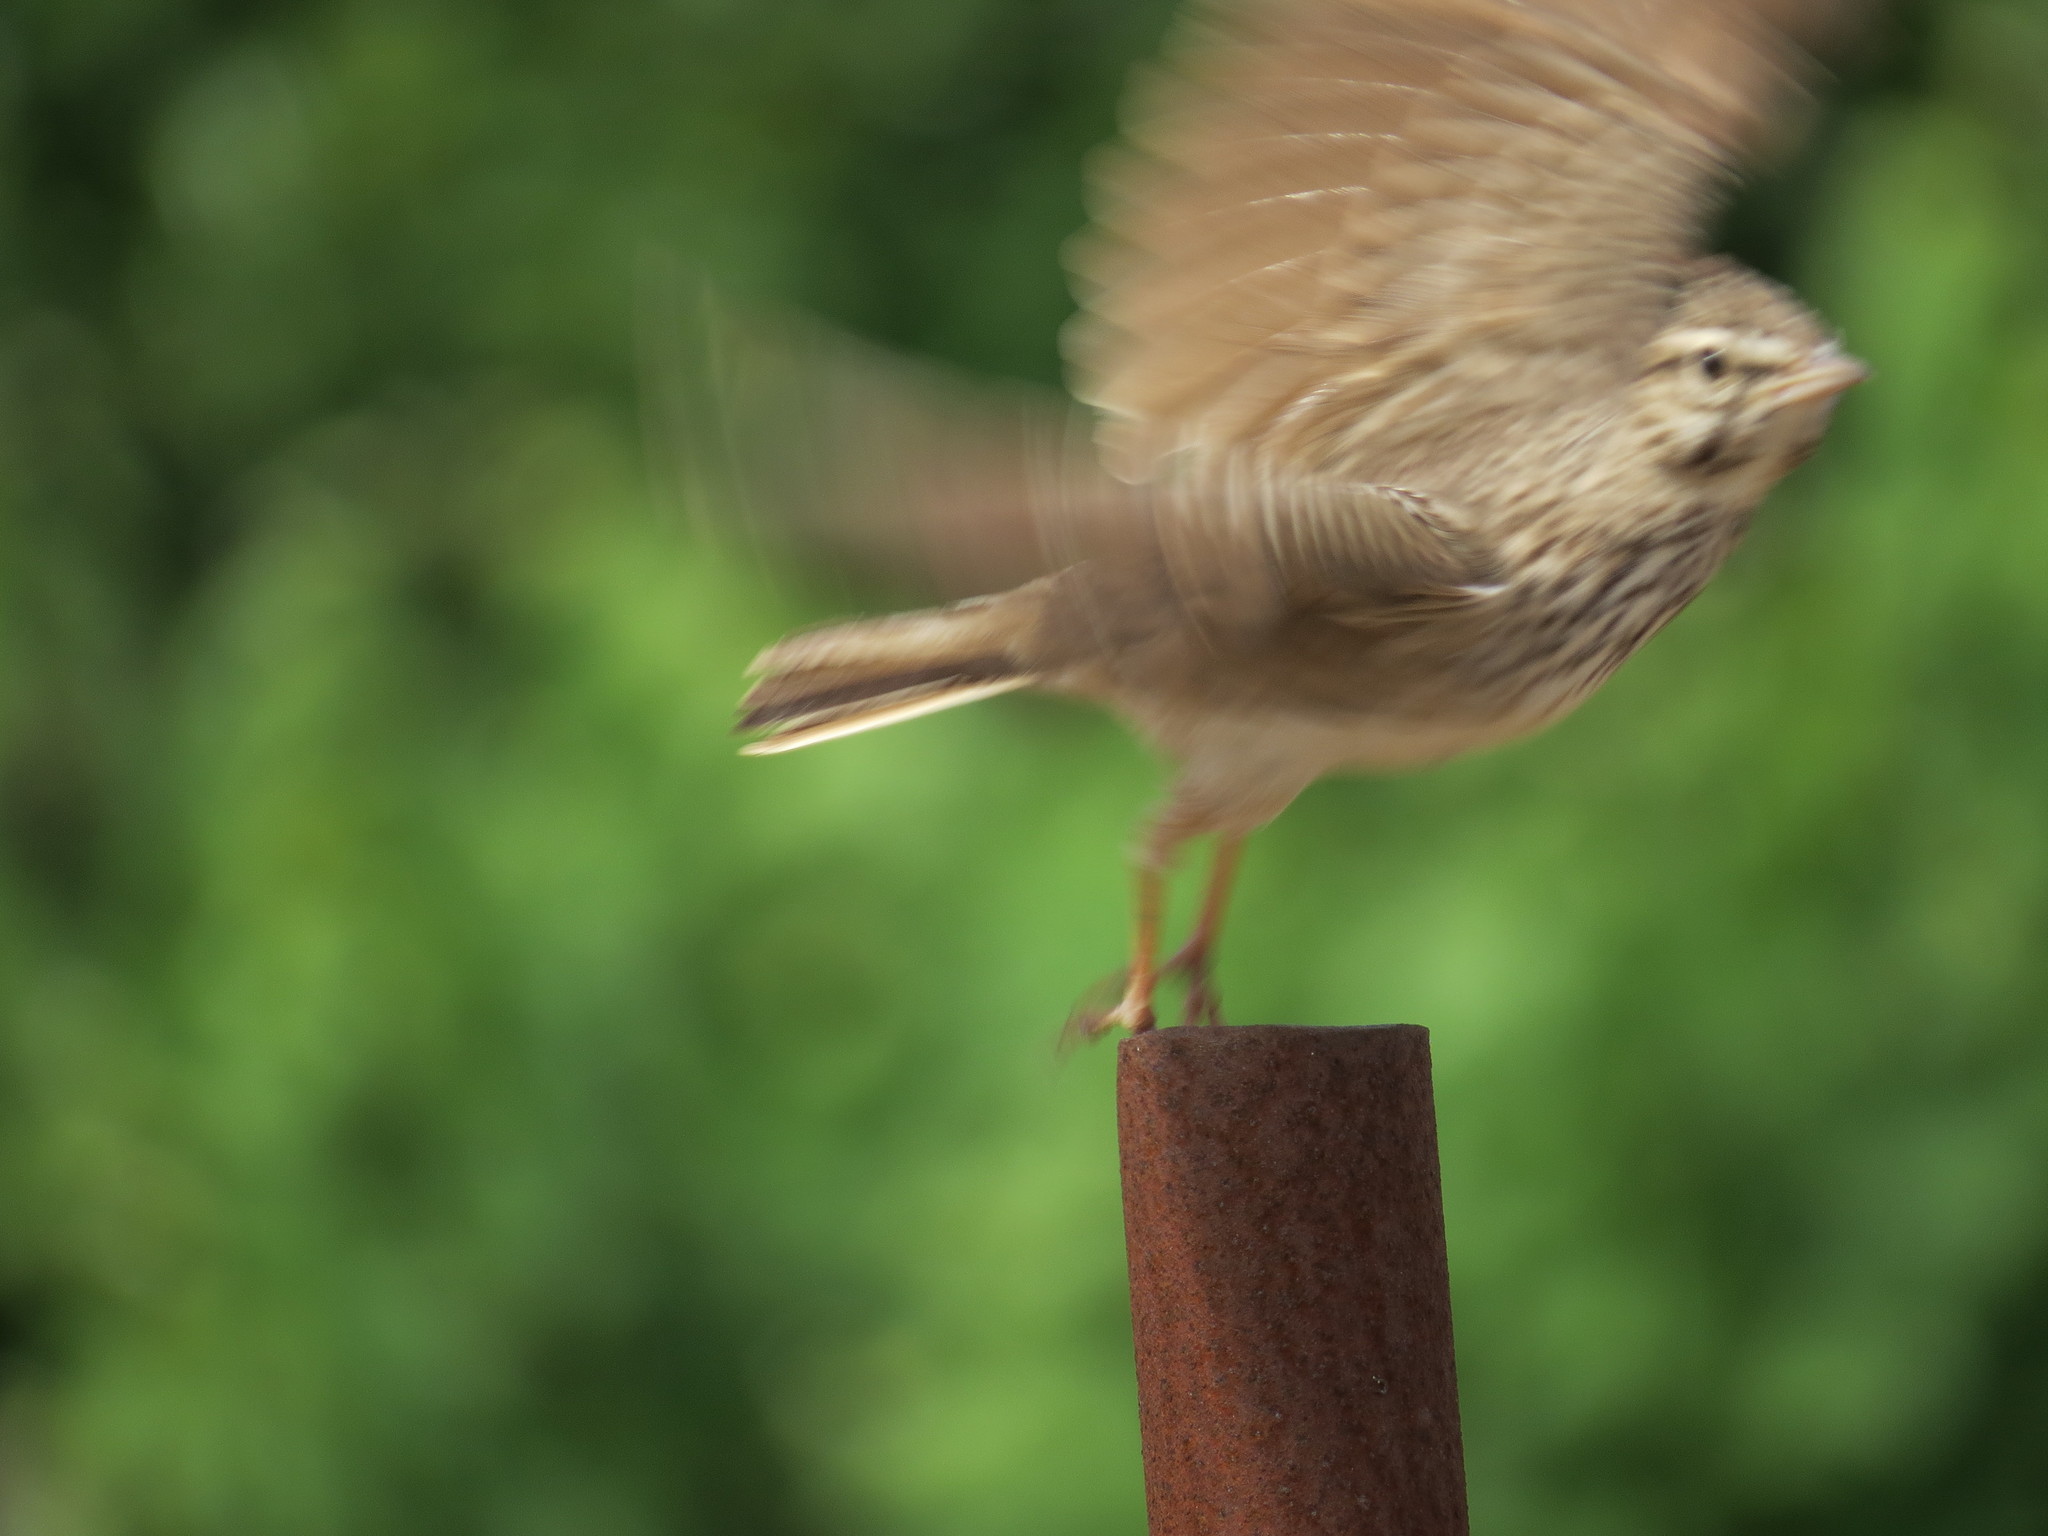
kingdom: Animalia
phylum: Chordata
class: Aves
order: Passeriformes
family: Alaudidae
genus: Galerida
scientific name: Galerida cristata
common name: Crested lark
